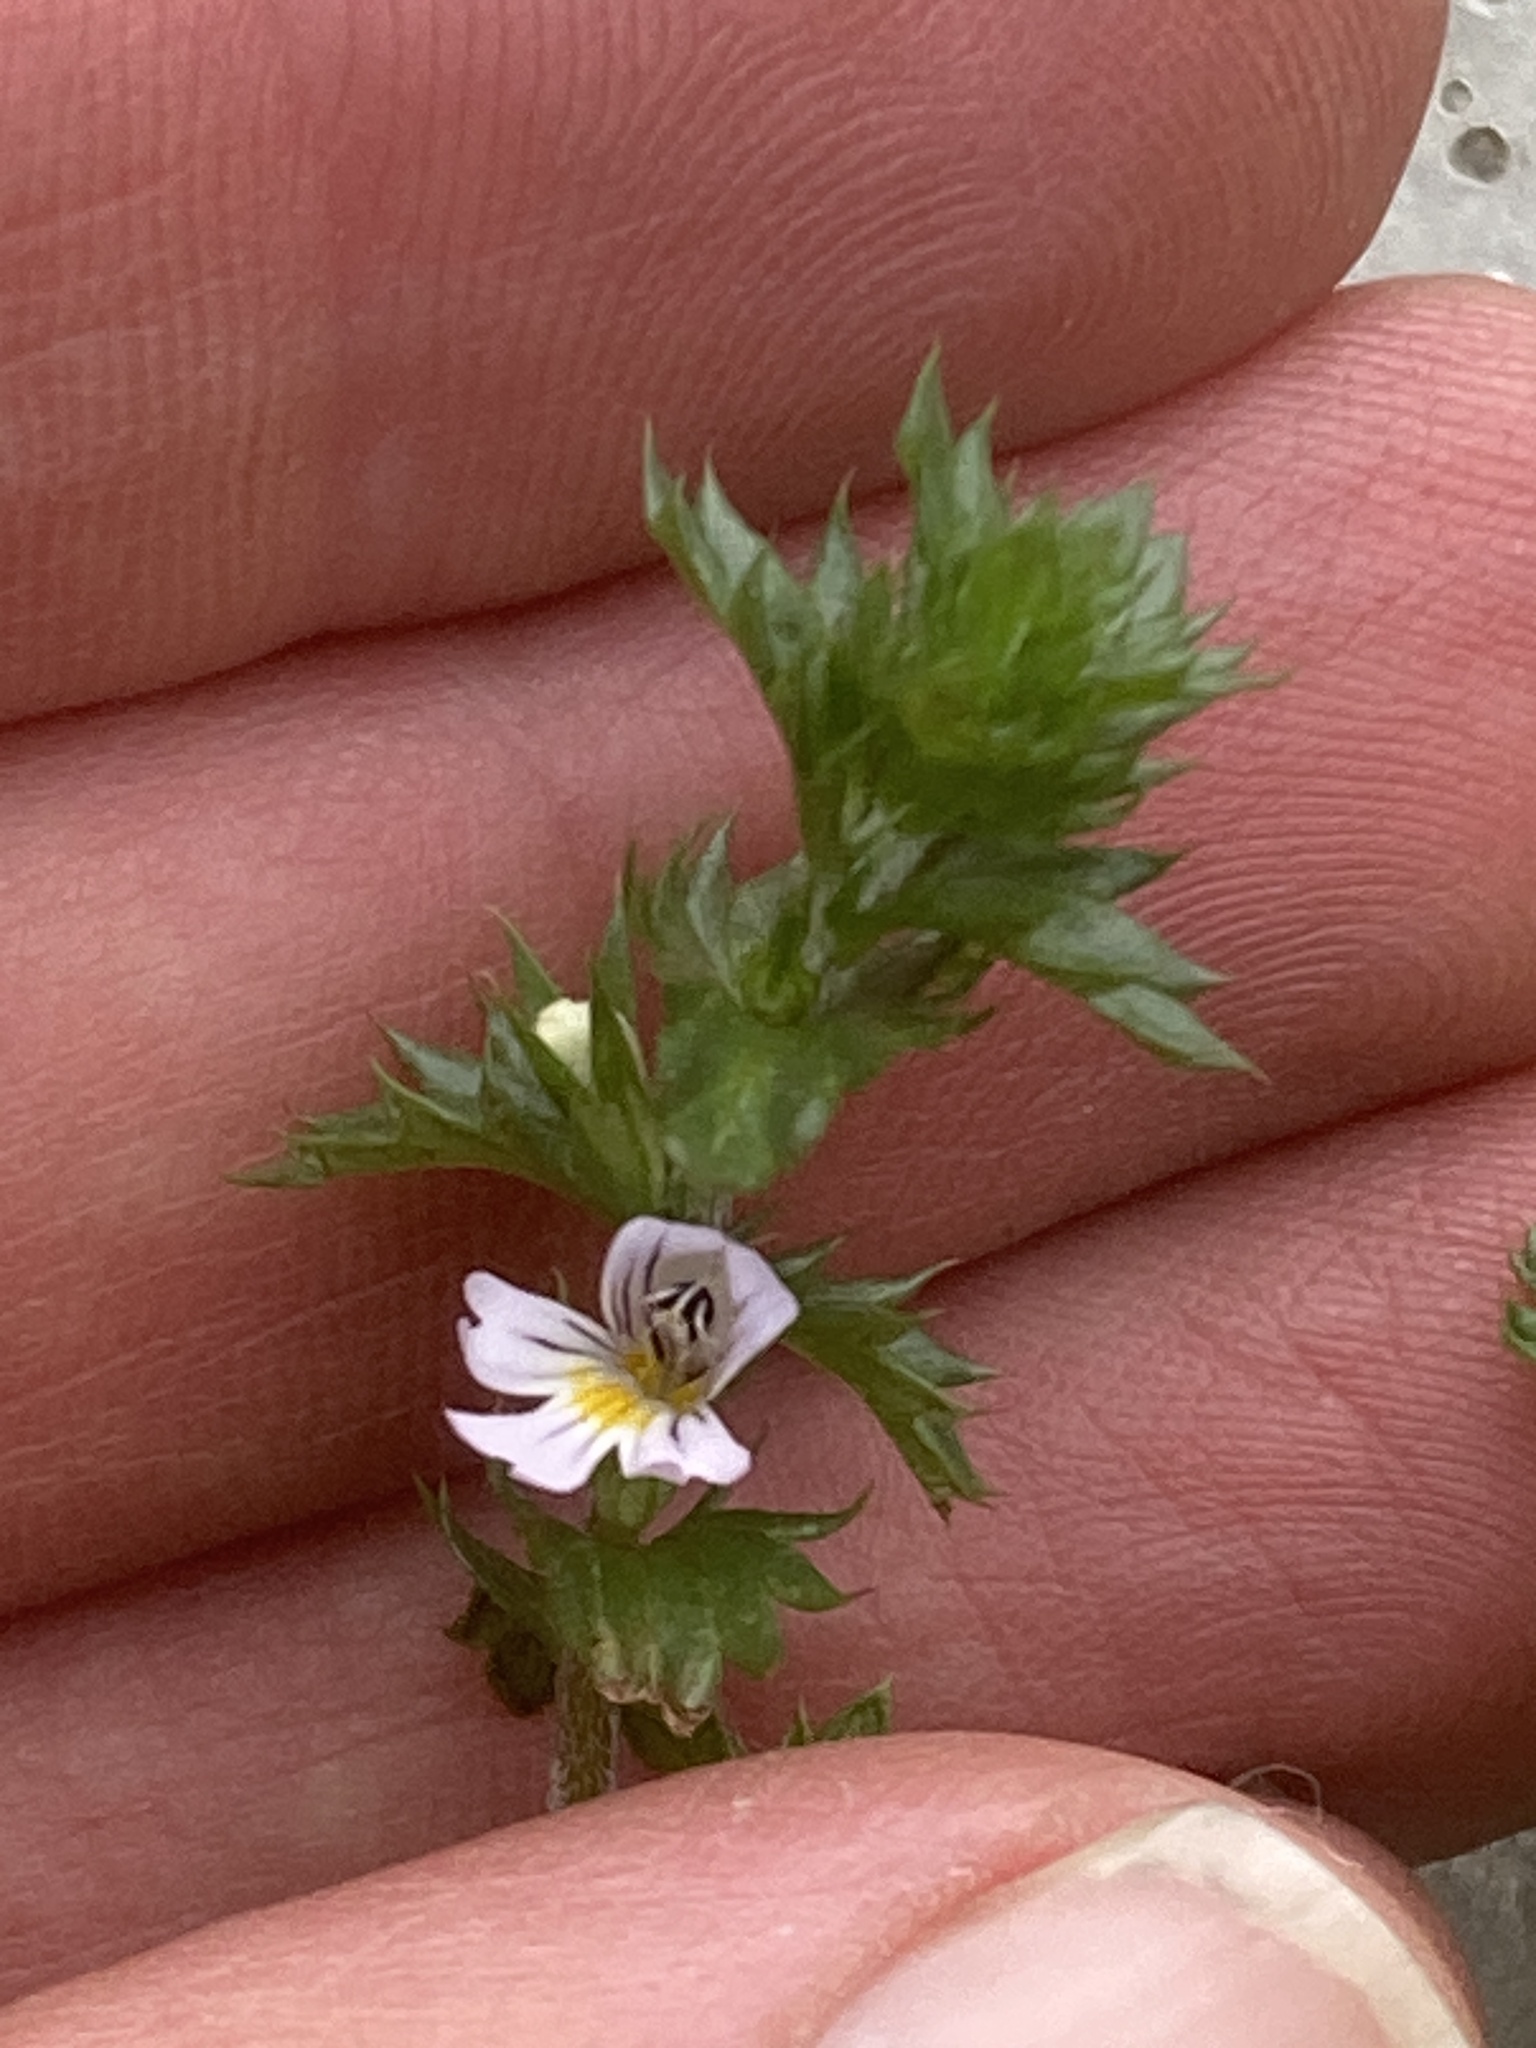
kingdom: Plantae
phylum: Tracheophyta
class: Magnoliopsida
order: Lamiales
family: Orobanchaceae
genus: Euphrasia
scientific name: Euphrasia nemorosa
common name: Common eyebright
